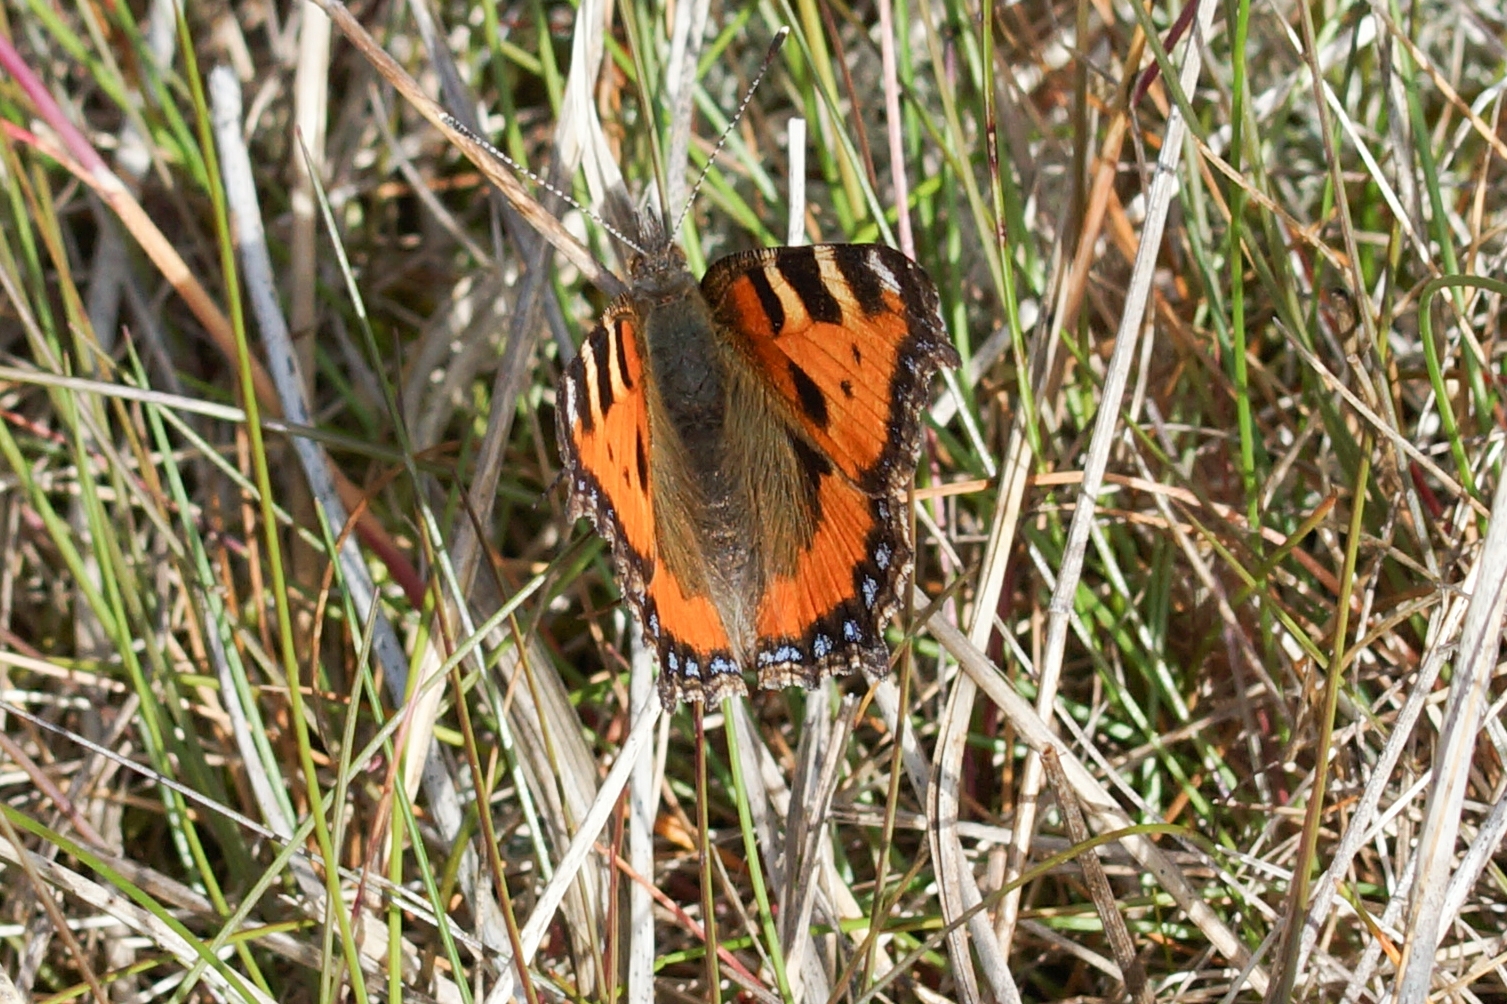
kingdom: Animalia
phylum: Arthropoda
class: Insecta
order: Lepidoptera
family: Nymphalidae
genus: Aglais
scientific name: Aglais urticae
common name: Small tortoiseshell
